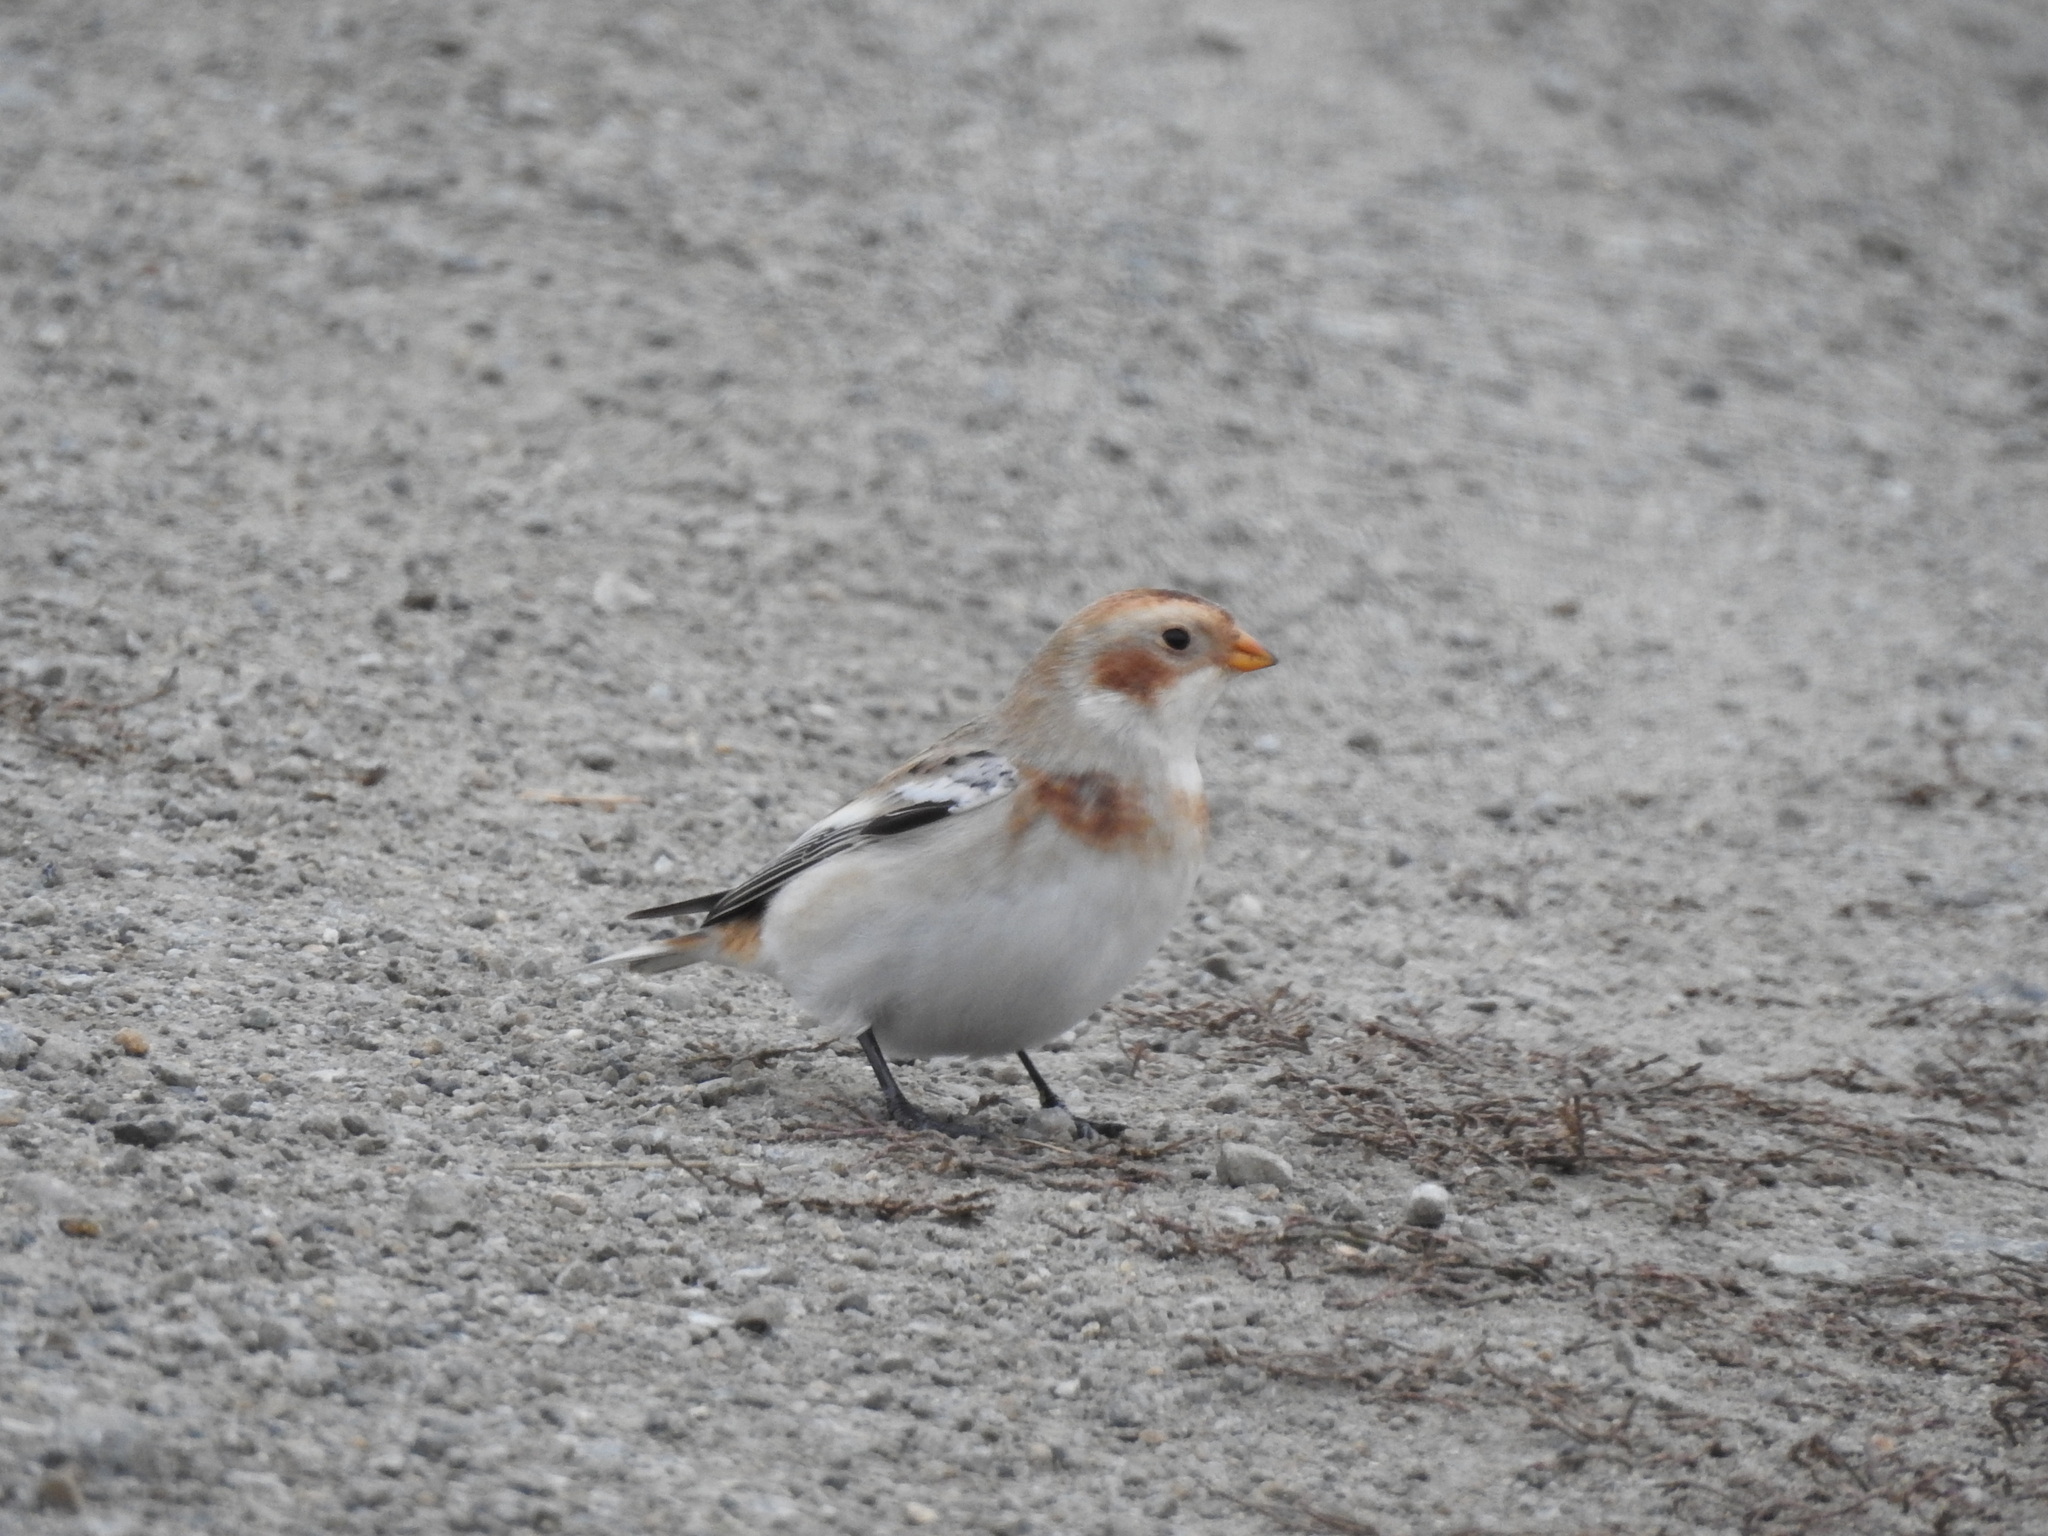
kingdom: Animalia
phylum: Chordata
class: Aves
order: Passeriformes
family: Calcariidae
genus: Plectrophenax
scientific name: Plectrophenax nivalis
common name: Snow bunting
